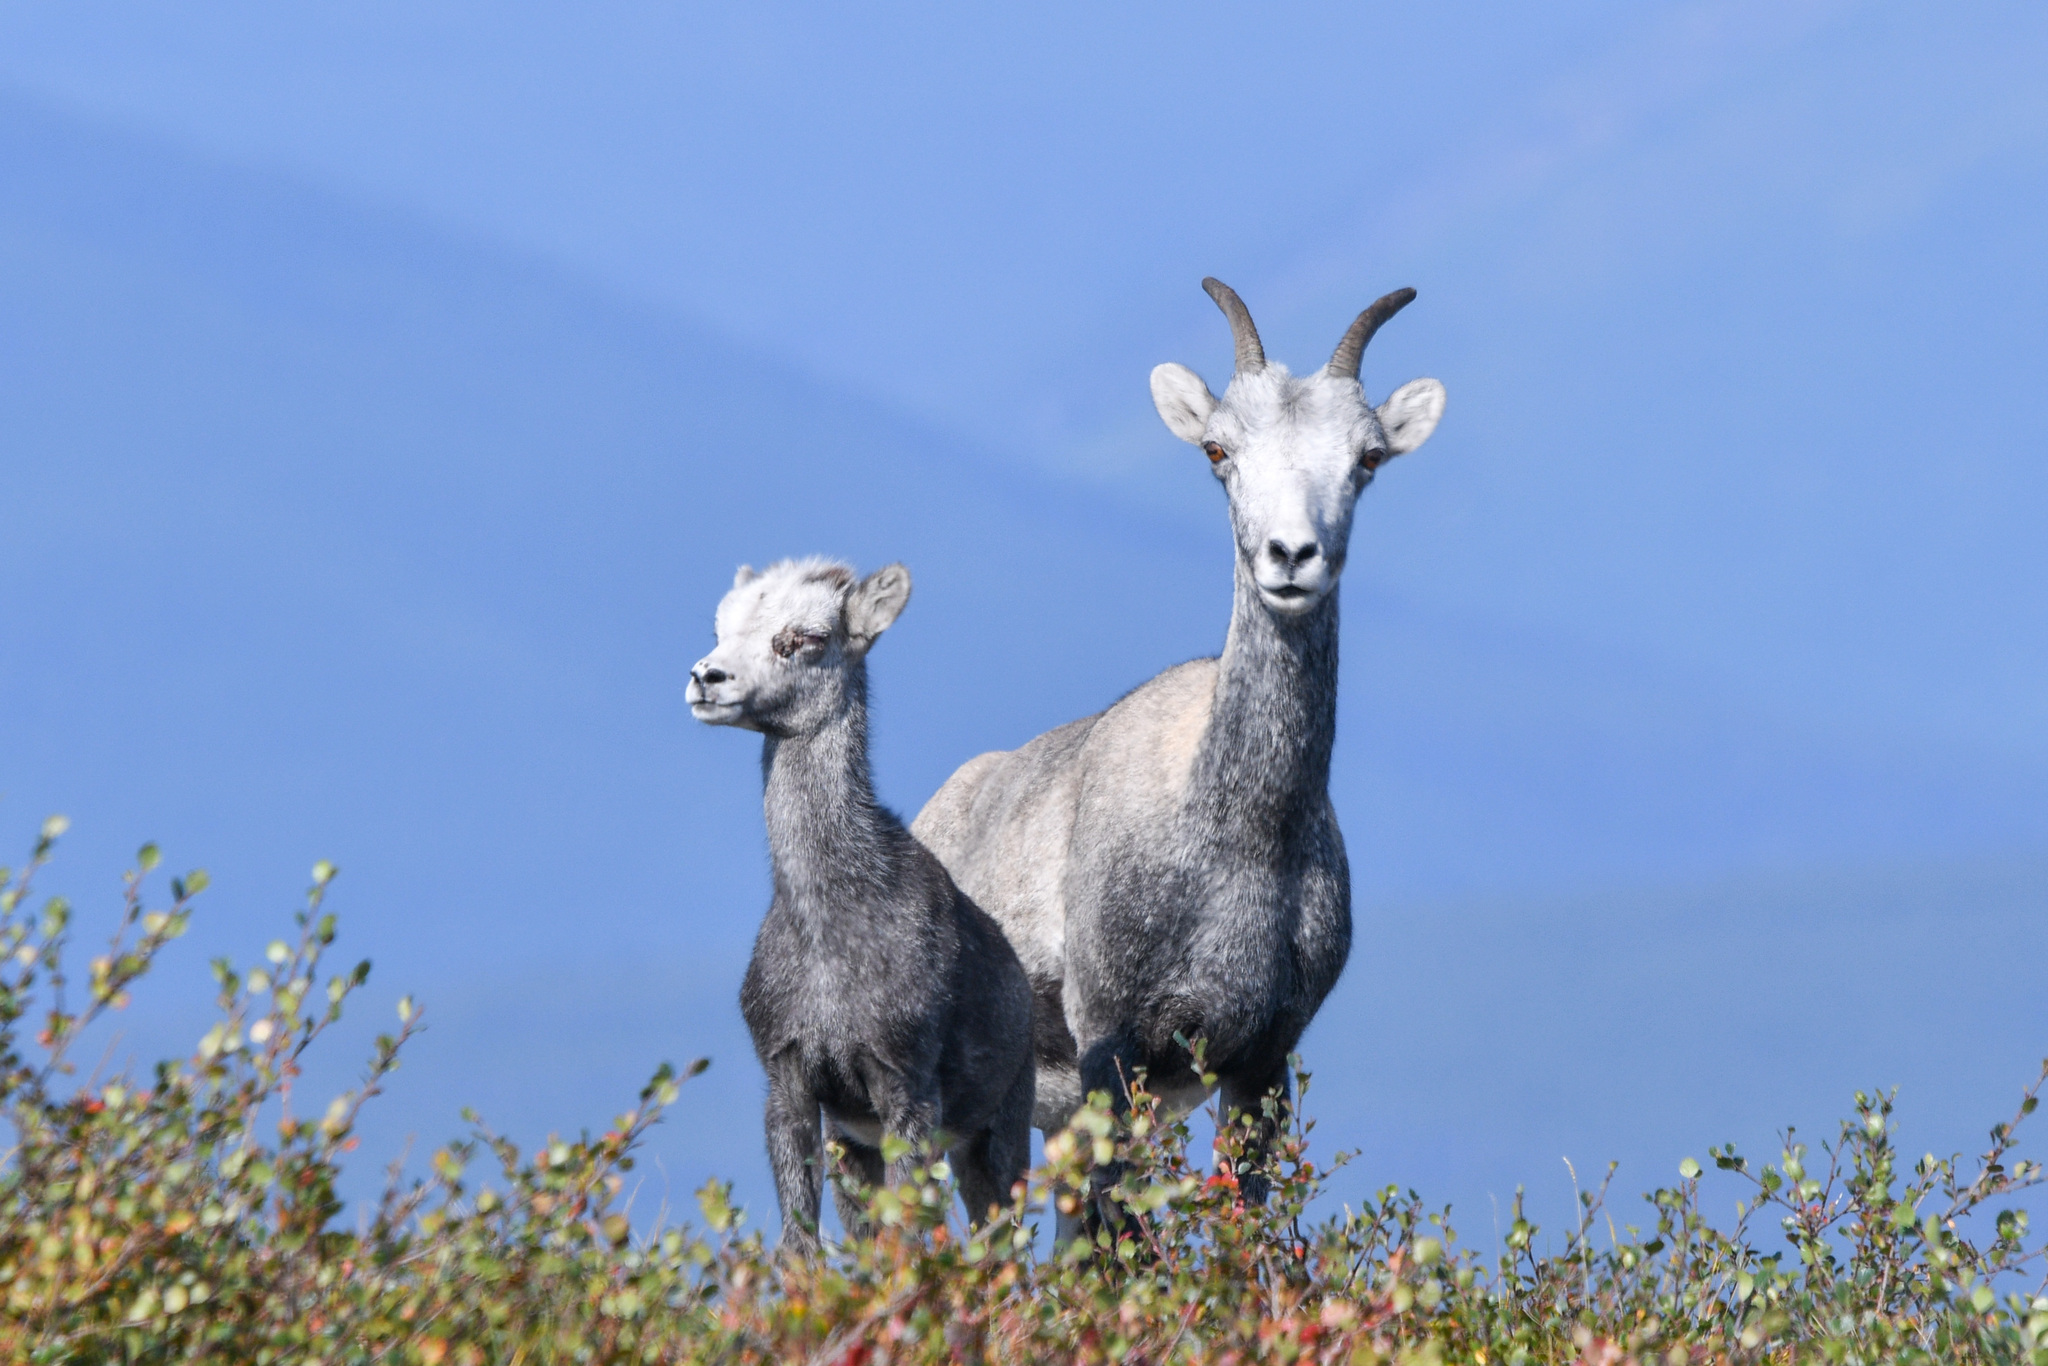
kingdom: Animalia
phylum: Chordata
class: Mammalia
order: Artiodactyla
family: Bovidae
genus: Ovis
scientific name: Ovis dalli
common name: Dall's sheep
